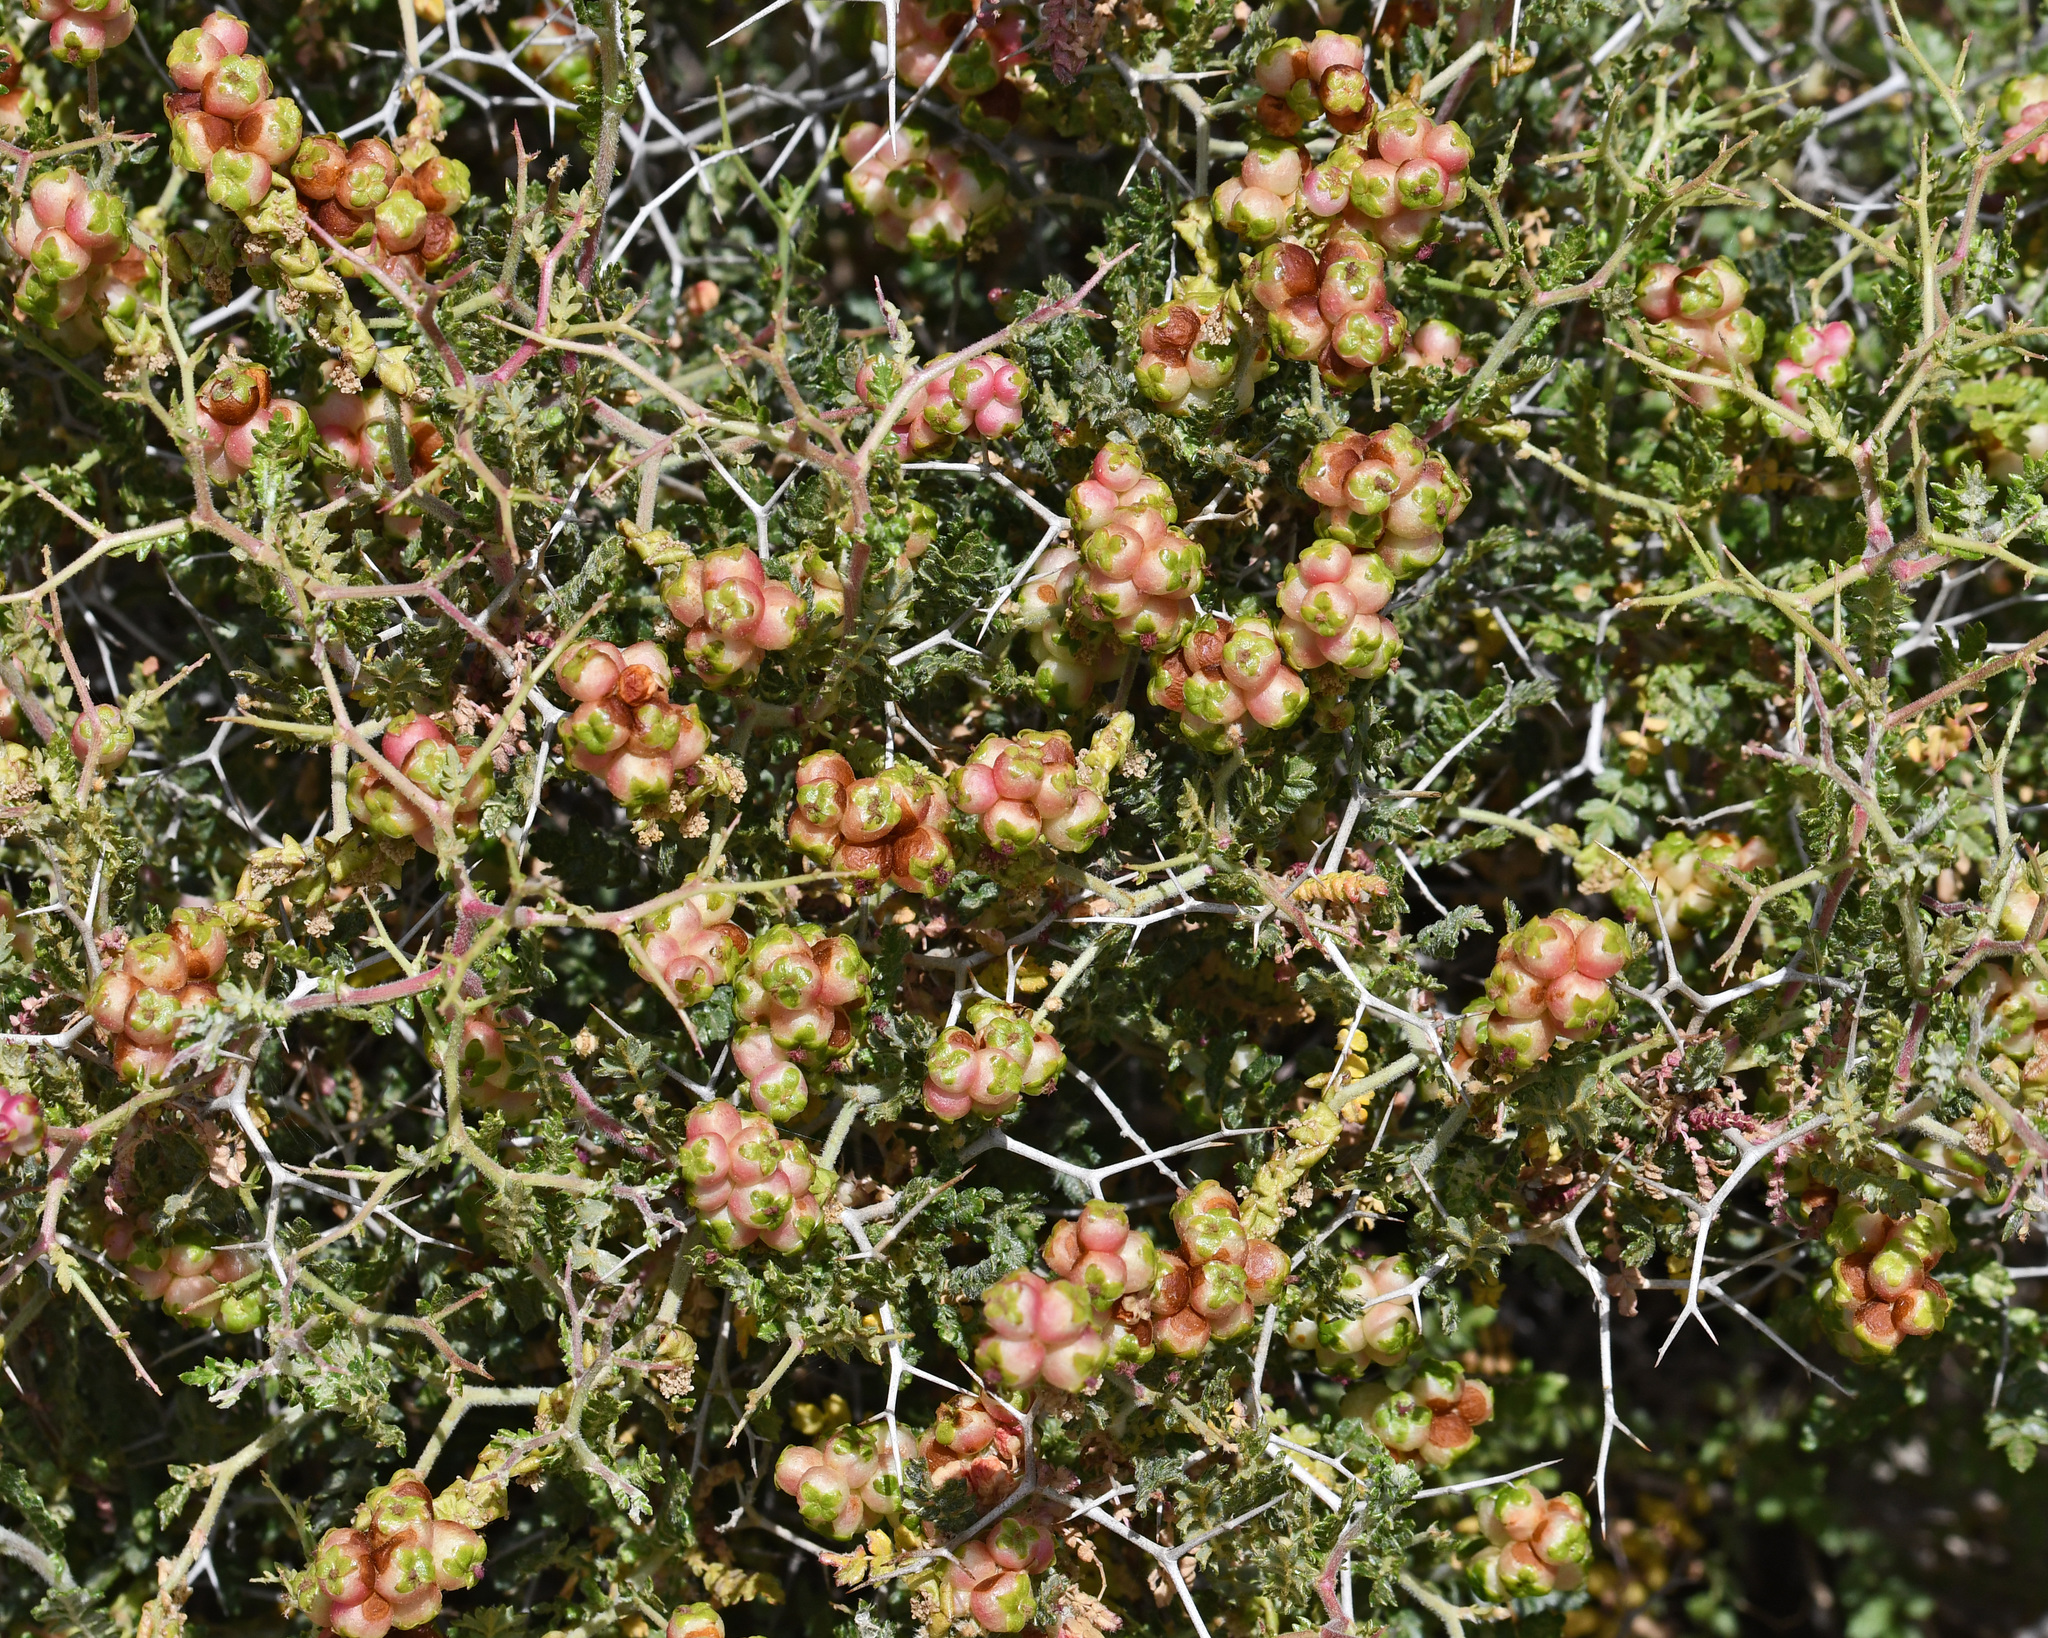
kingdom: Plantae
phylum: Tracheophyta
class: Magnoliopsida
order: Rosales
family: Rosaceae
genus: Sarcopoterium
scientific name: Sarcopoterium spinosum
